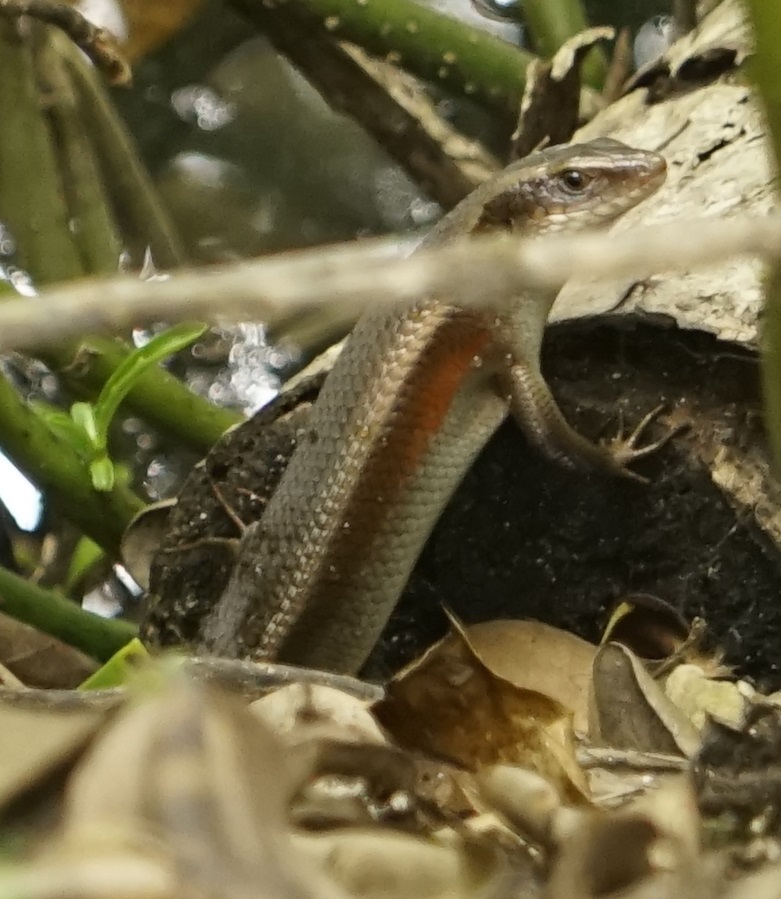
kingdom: Animalia
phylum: Chordata
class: Squamata
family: Scincidae
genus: Eutropis
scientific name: Eutropis multifasciata
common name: Common mabuya
